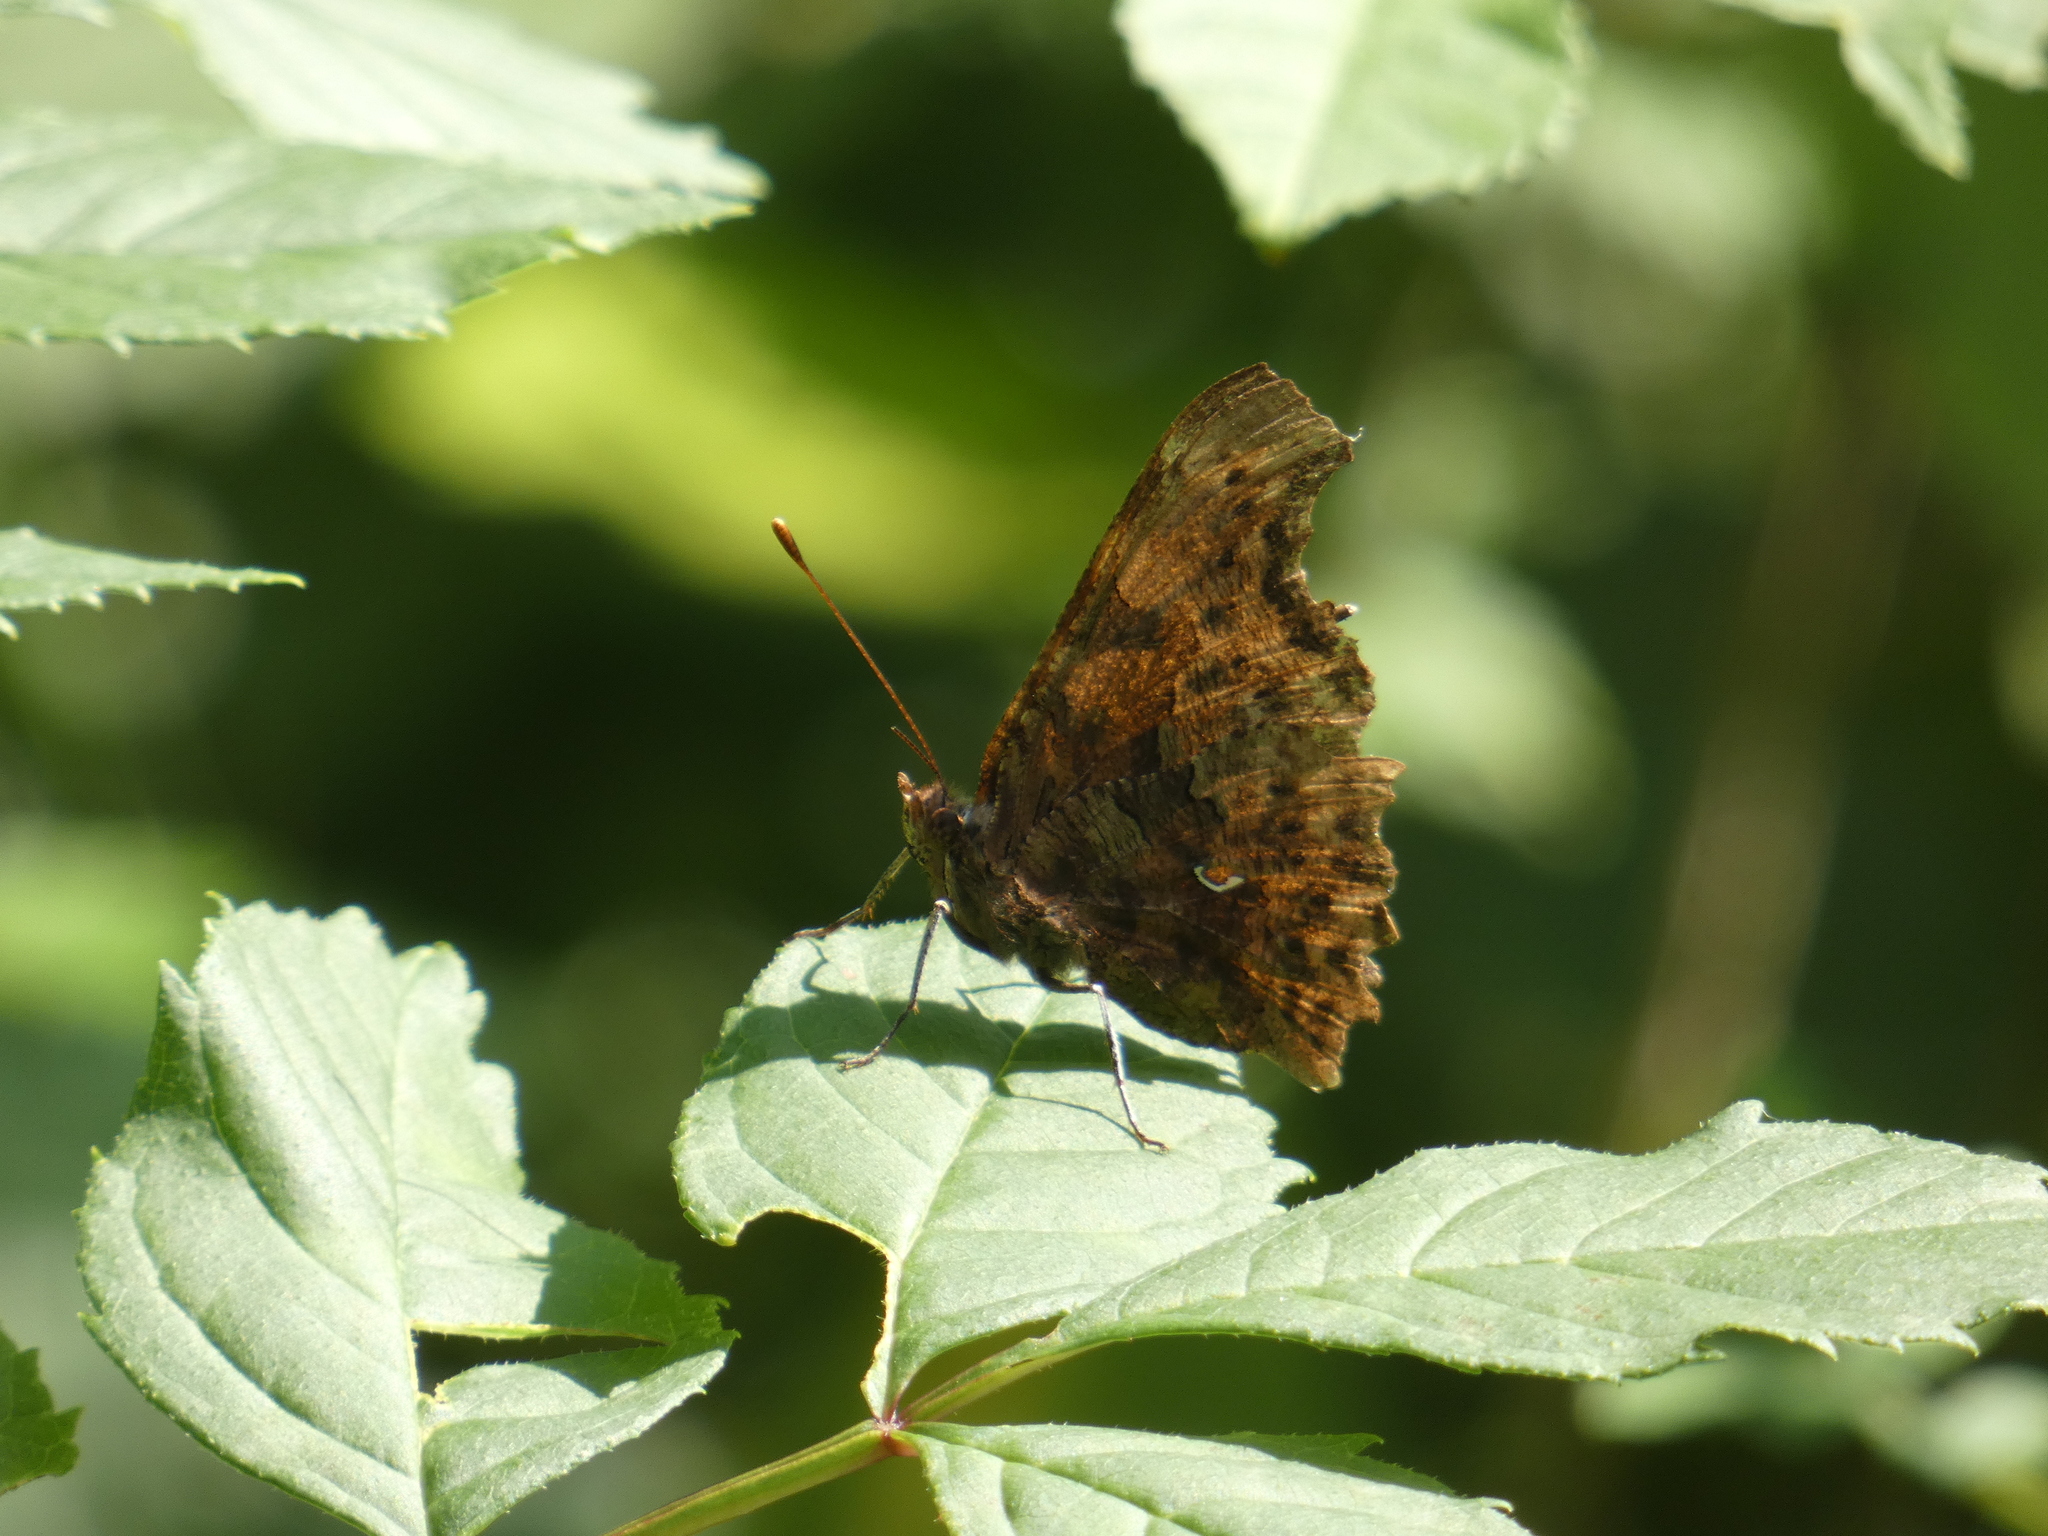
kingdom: Animalia
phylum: Arthropoda
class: Insecta
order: Lepidoptera
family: Nymphalidae
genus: Polygonia
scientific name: Polygonia c-album
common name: Comma
